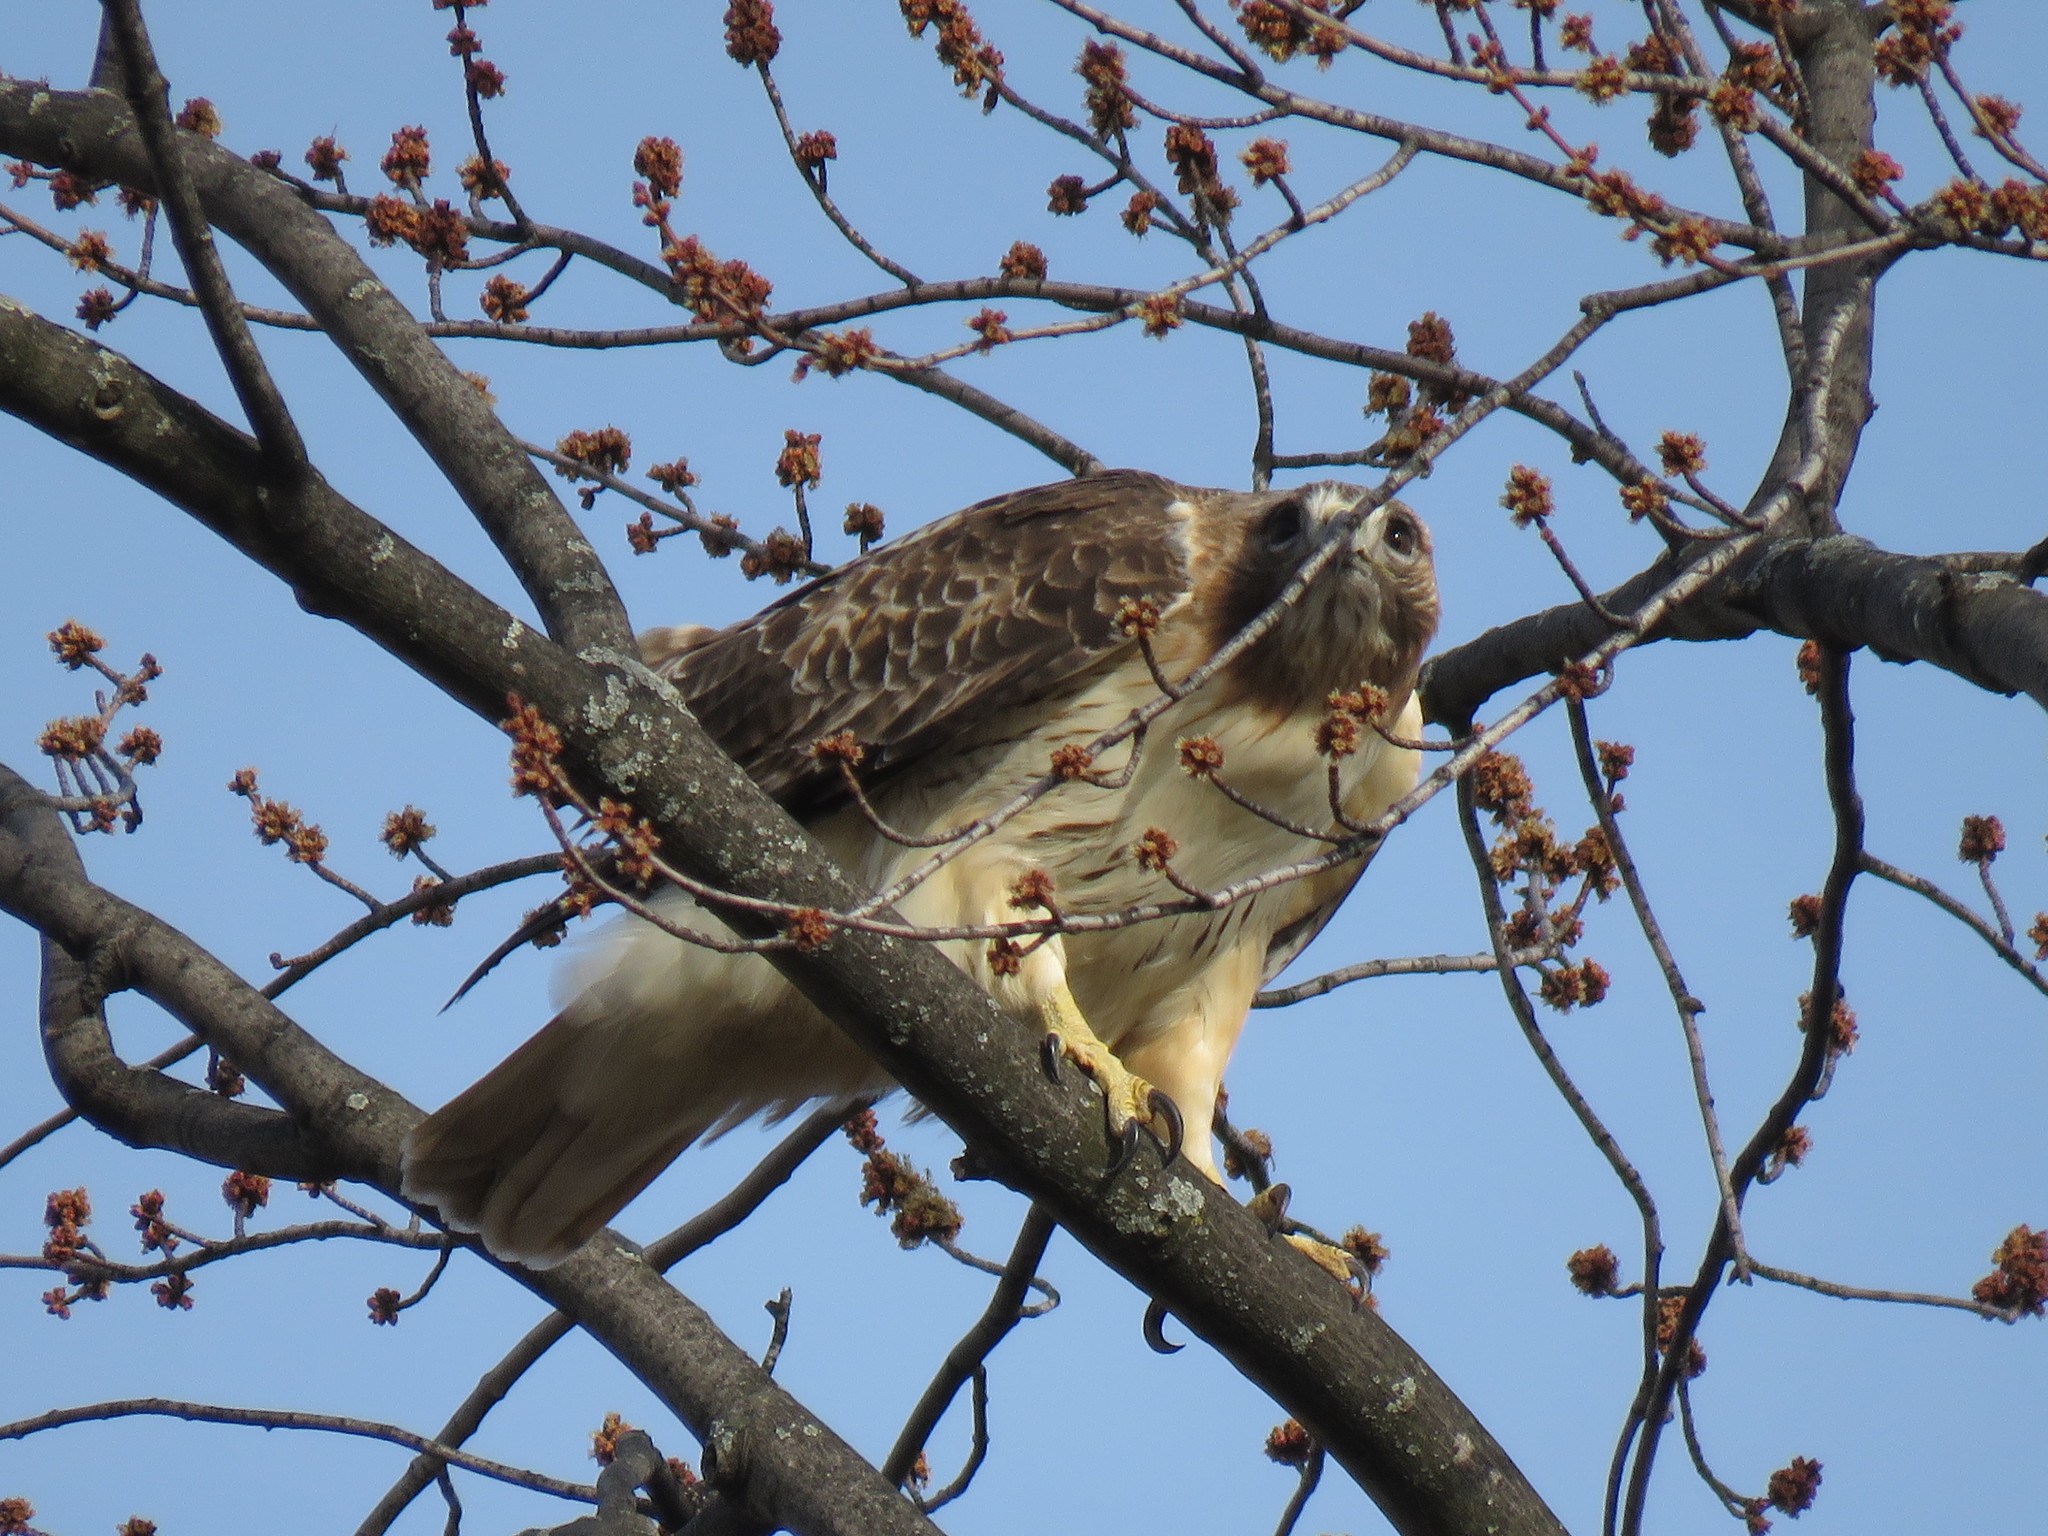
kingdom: Animalia
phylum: Chordata
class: Aves
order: Accipitriformes
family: Accipitridae
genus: Buteo
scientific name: Buteo jamaicensis
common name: Red-tailed hawk
